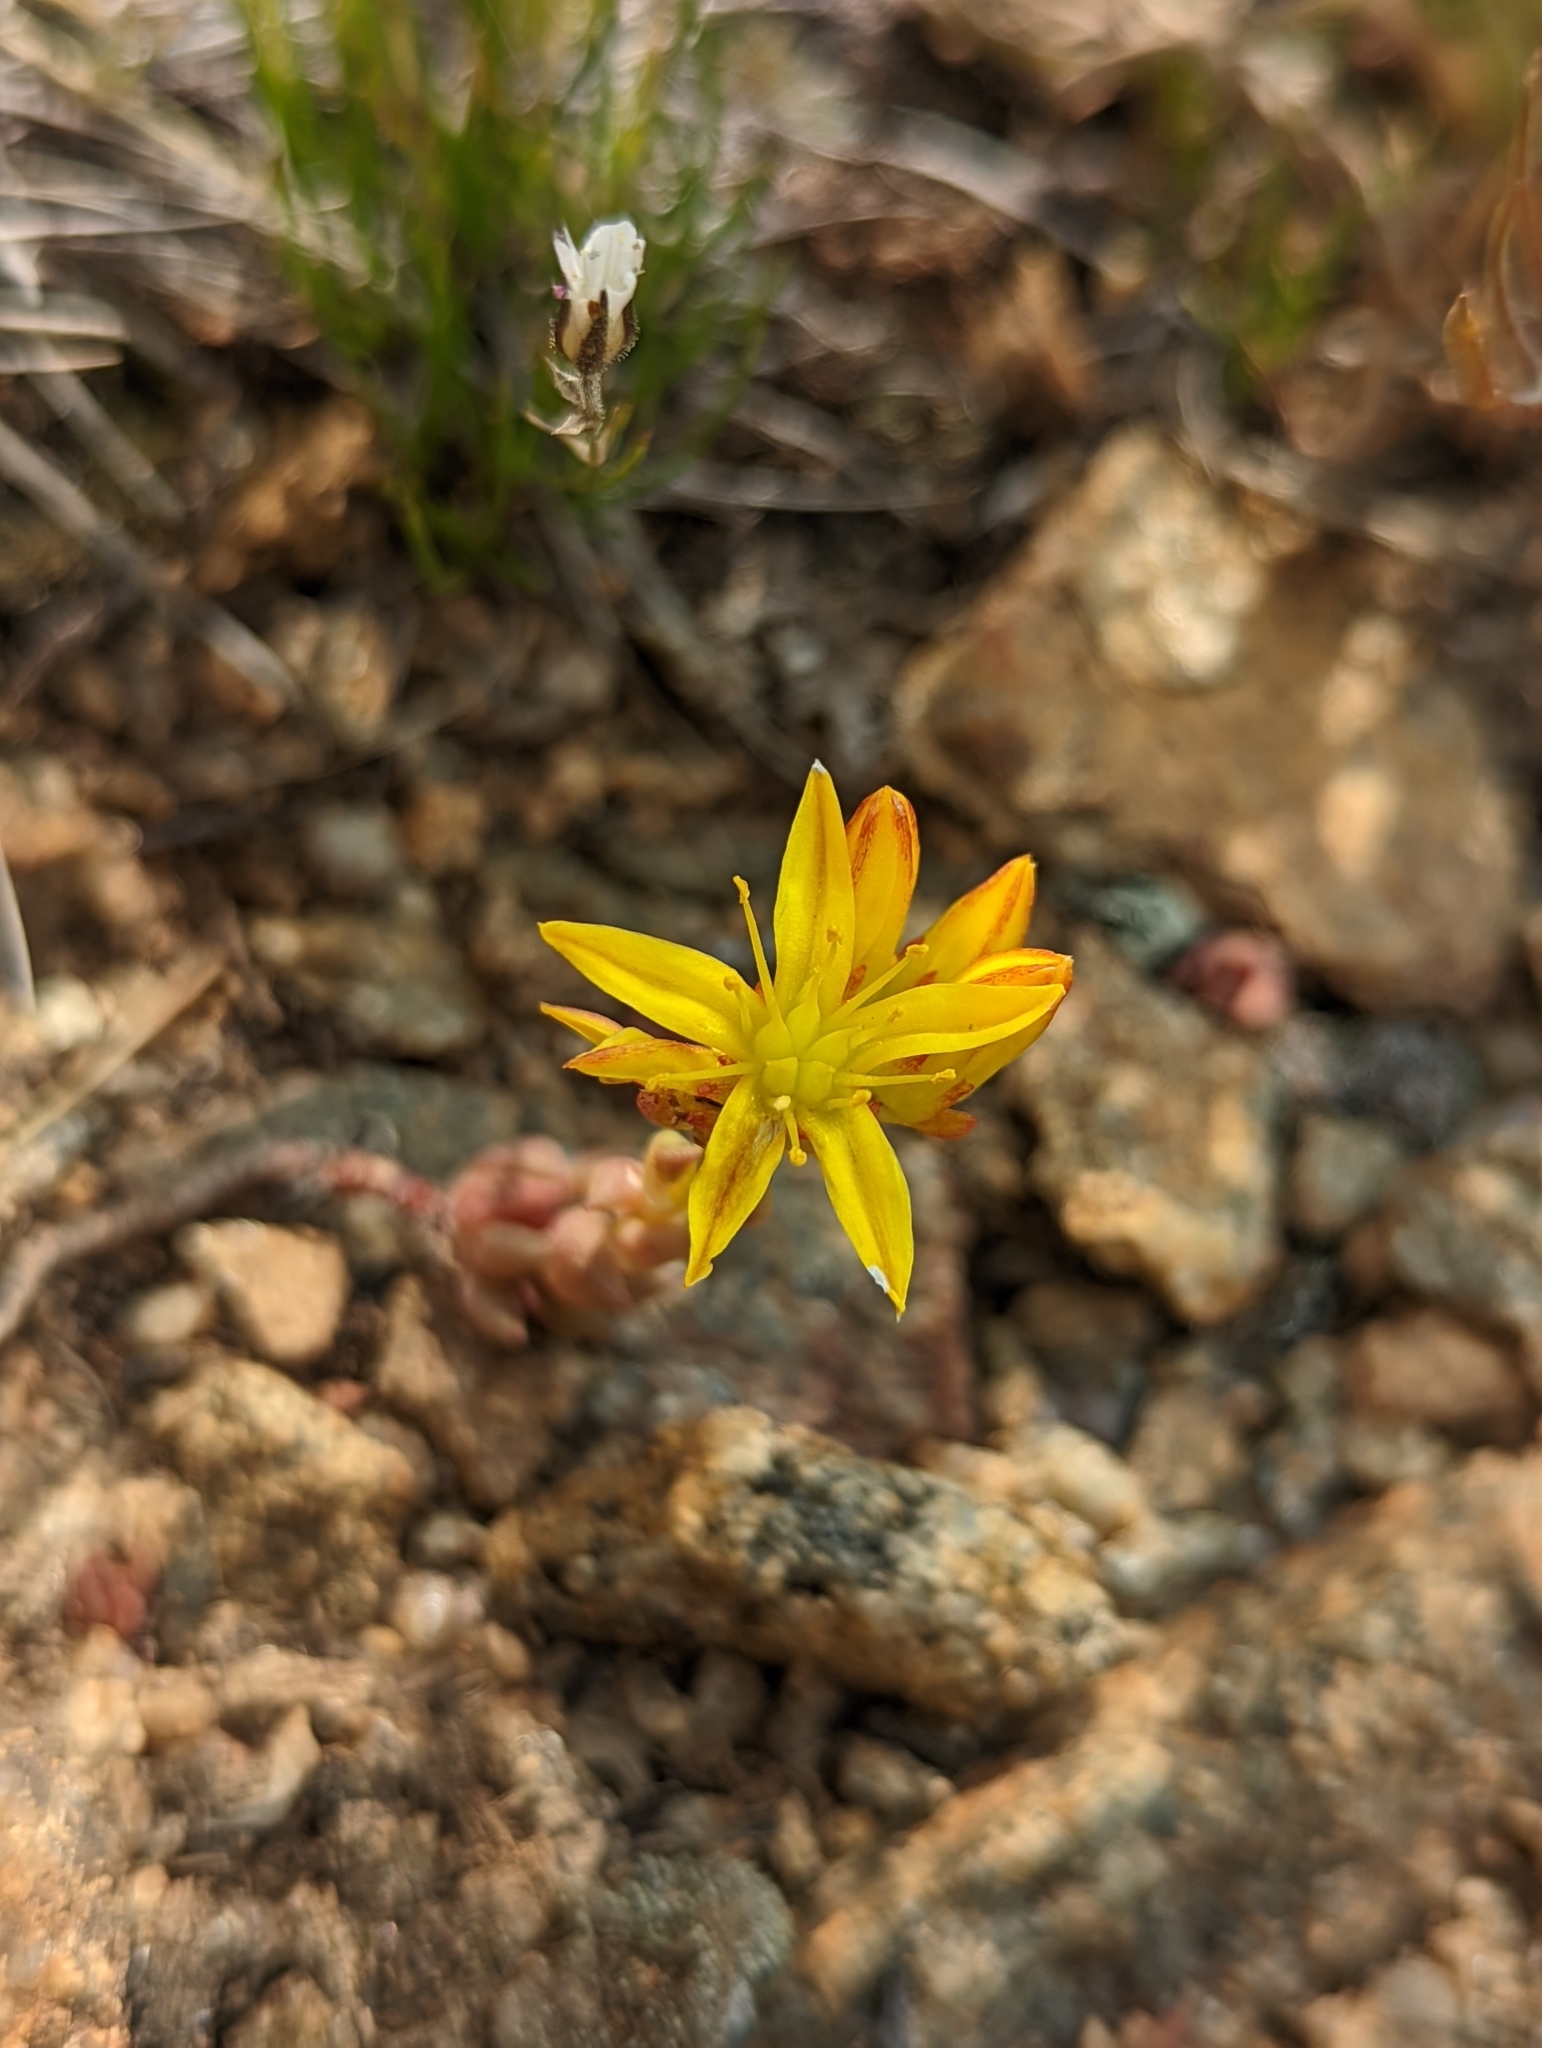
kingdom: Plantae
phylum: Tracheophyta
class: Magnoliopsida
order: Saxifragales
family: Crassulaceae
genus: Sedum
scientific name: Sedum lanceolatum
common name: Common stonecrop
